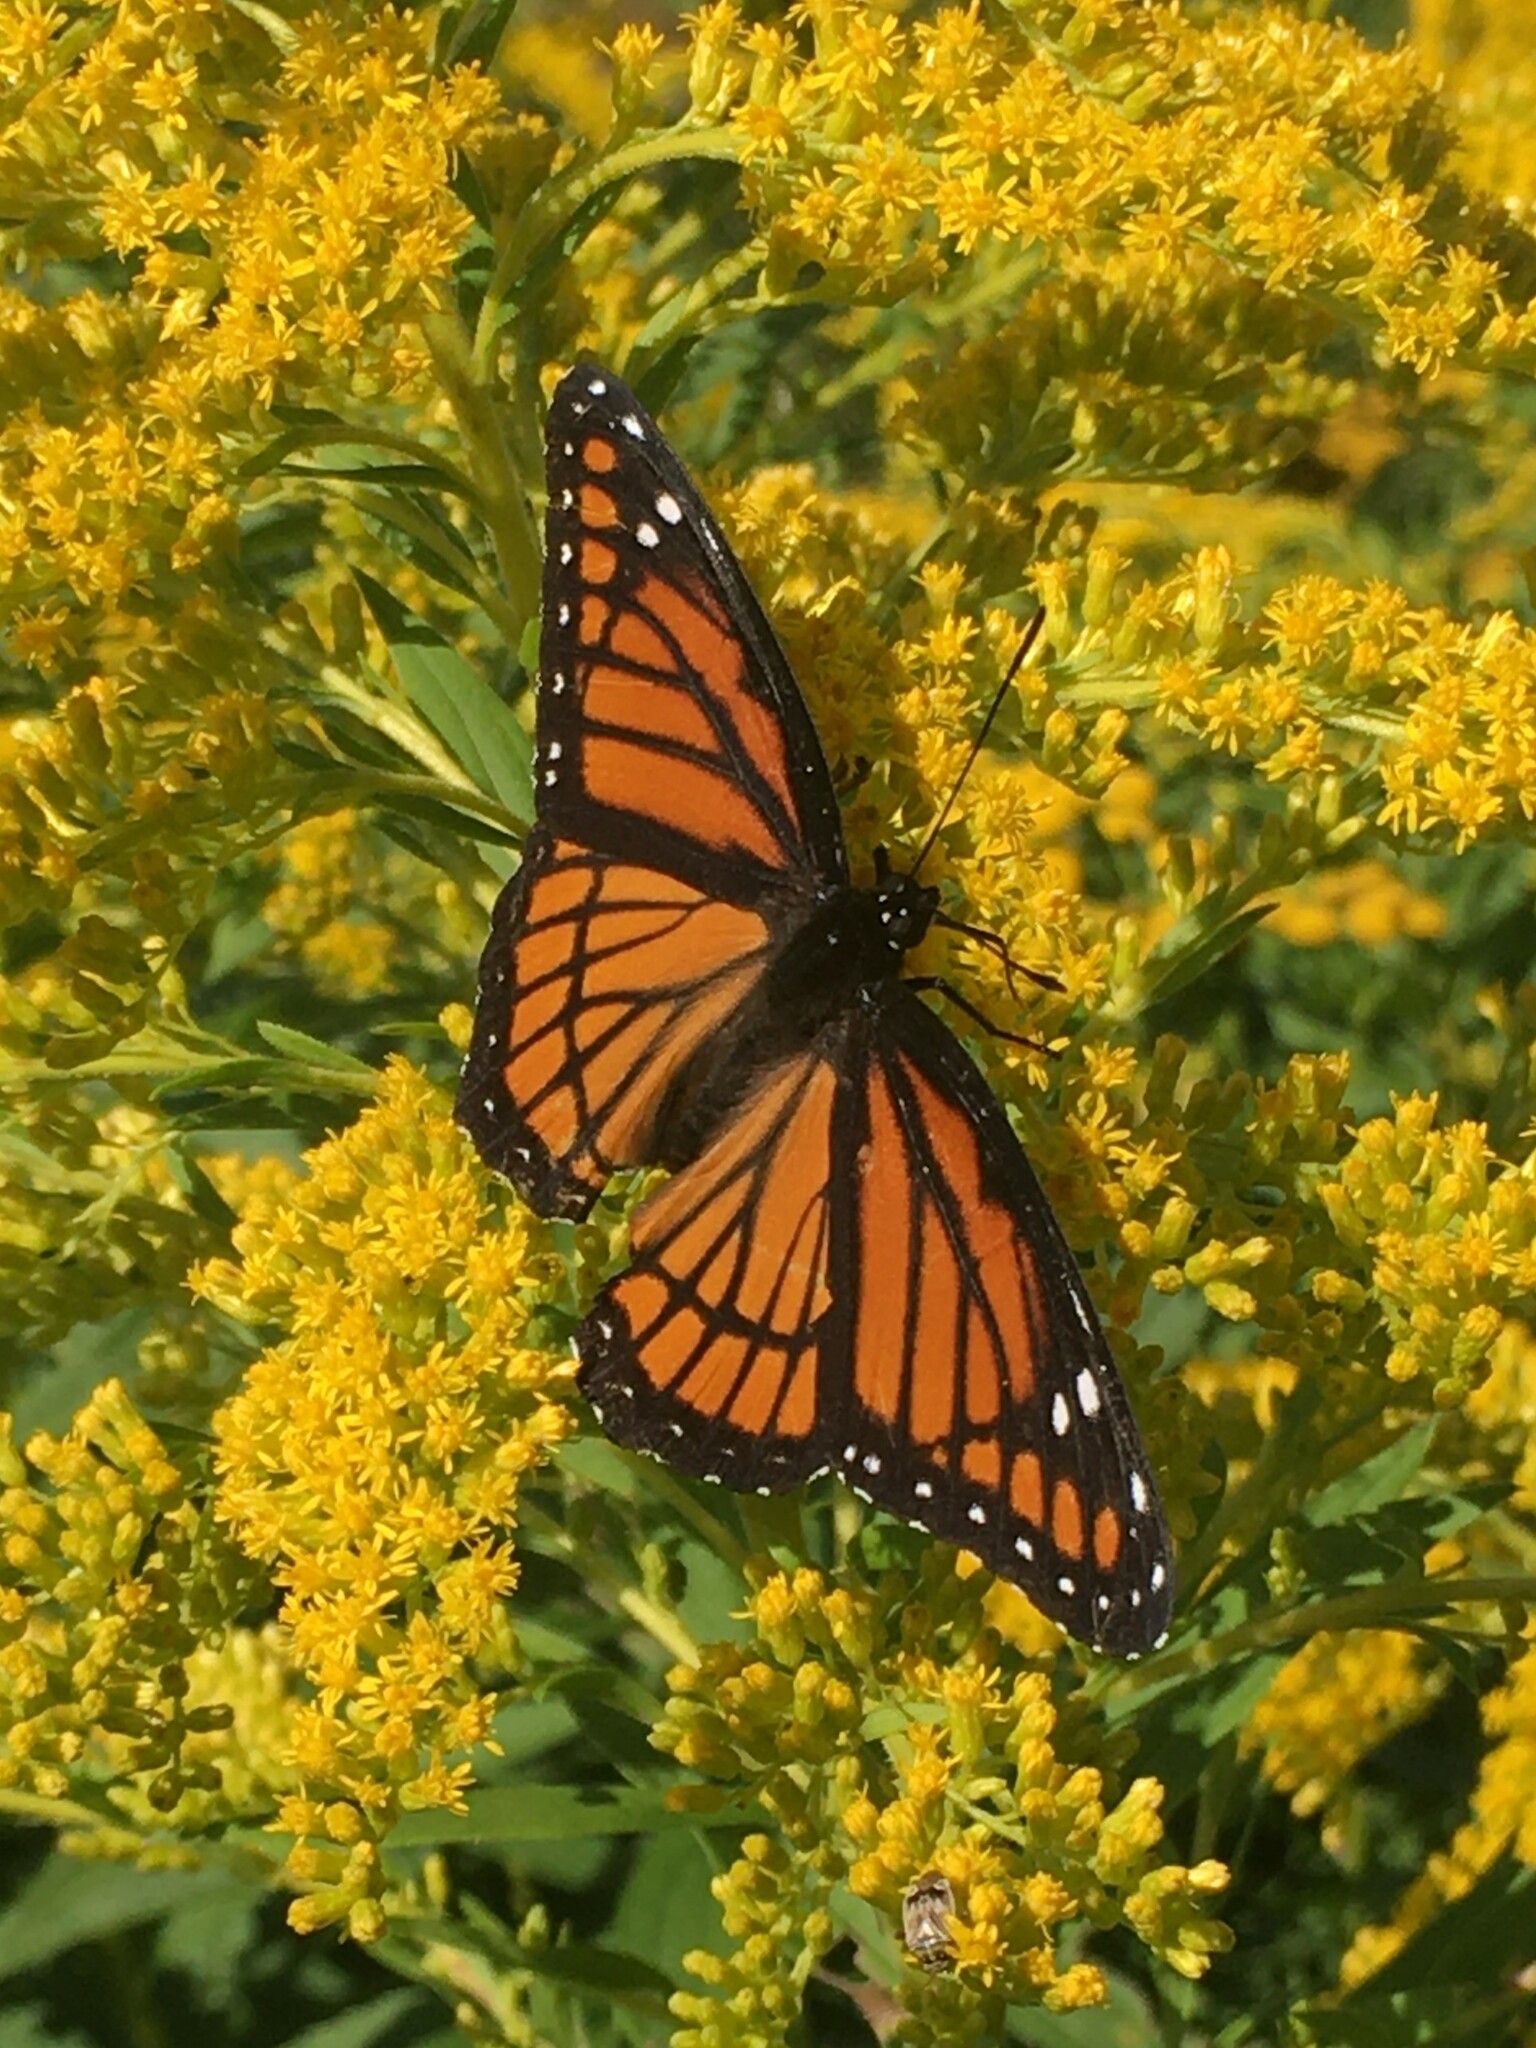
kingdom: Animalia
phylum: Arthropoda
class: Insecta
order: Lepidoptera
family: Nymphalidae
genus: Limenitis
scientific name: Limenitis archippus
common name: Viceroy
